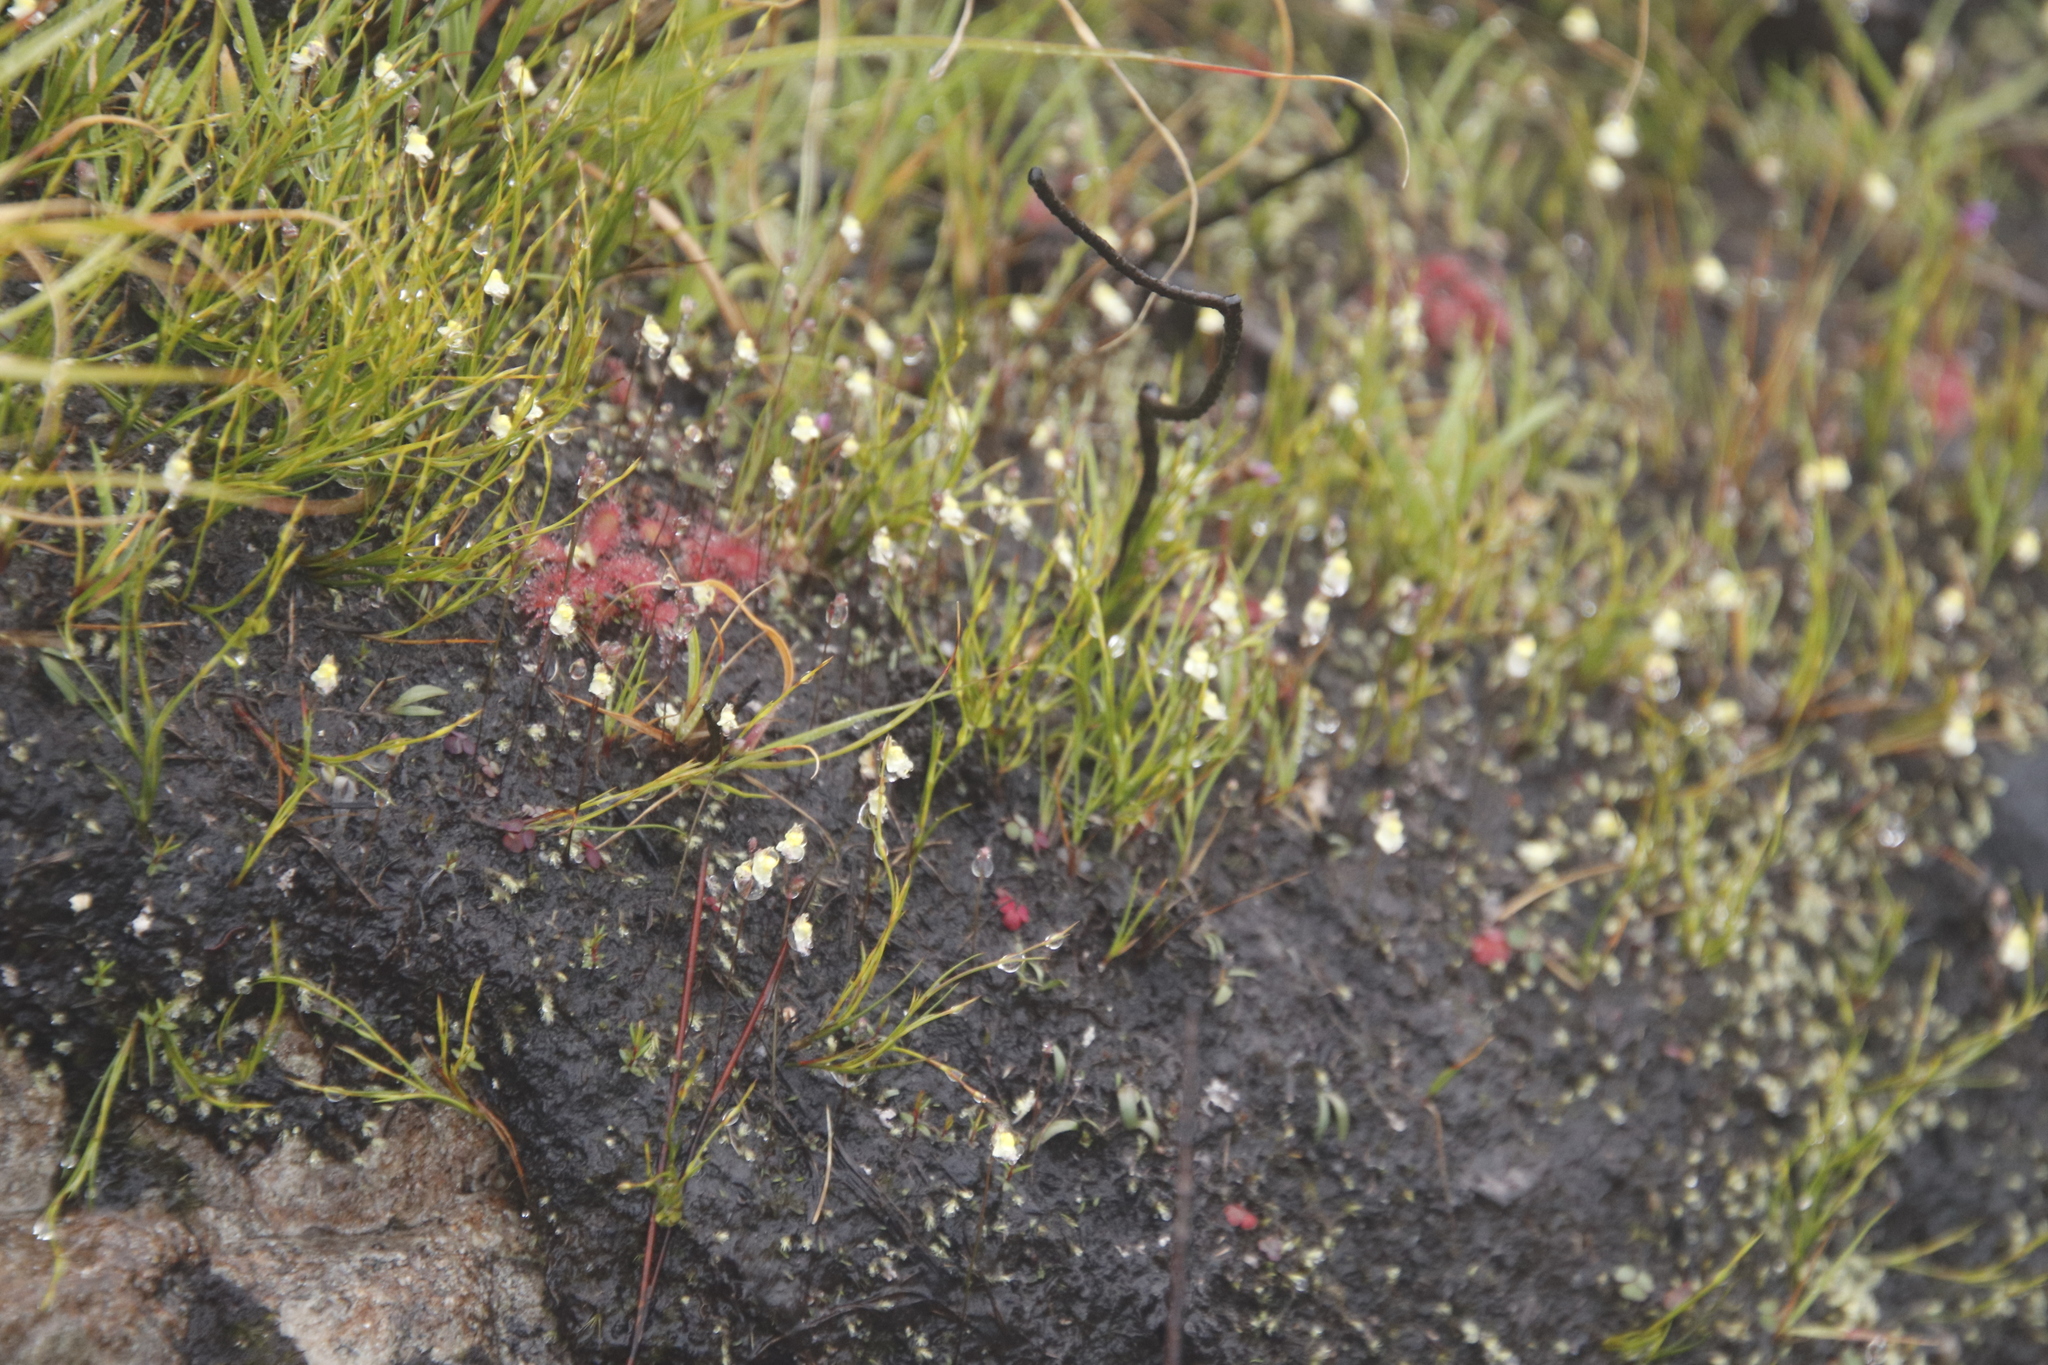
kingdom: Plantae
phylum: Tracheophyta
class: Magnoliopsida
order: Caryophyllales
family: Droseraceae
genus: Drosera
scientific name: Drosera trinervia
